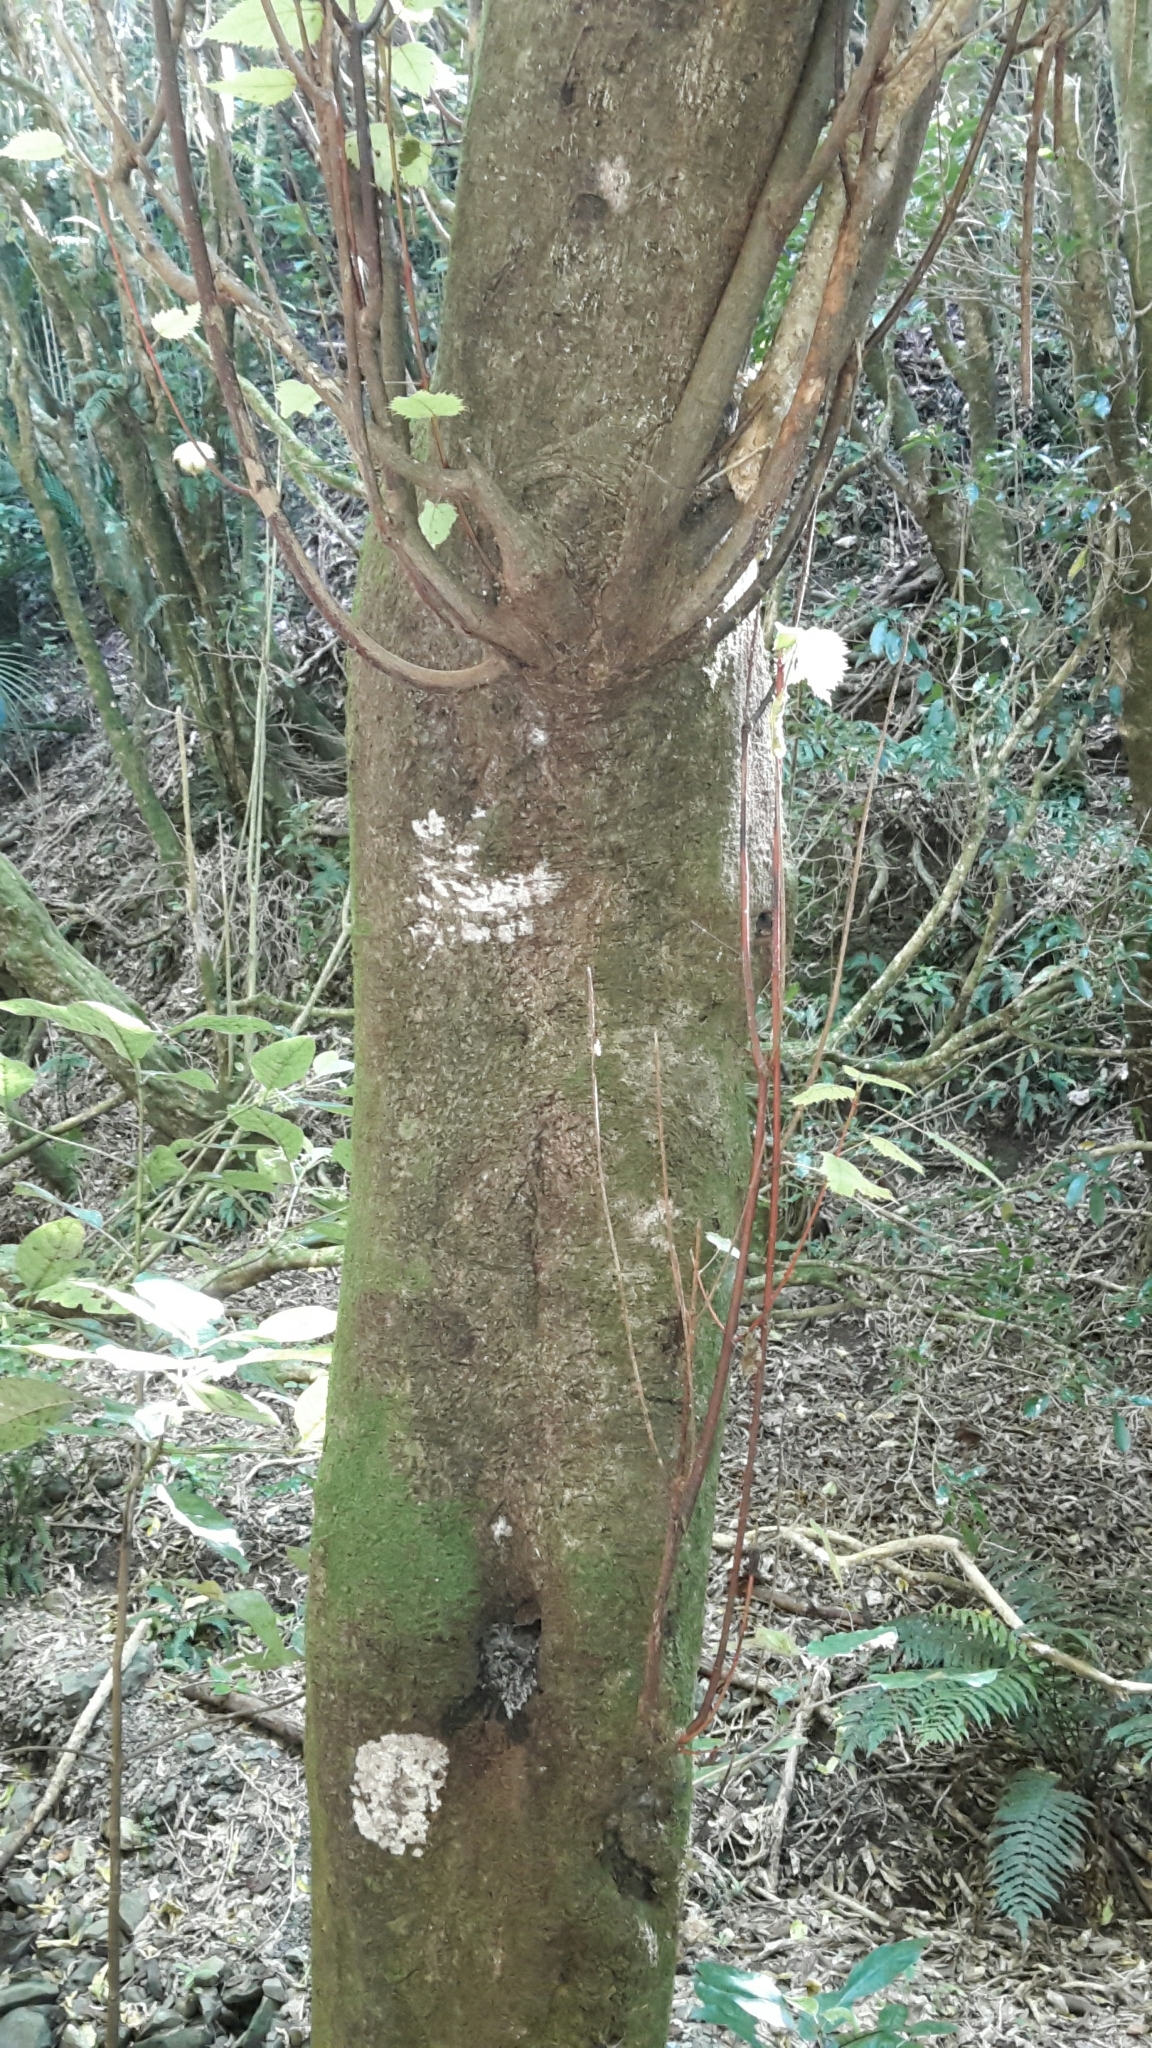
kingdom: Plantae
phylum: Tracheophyta
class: Magnoliopsida
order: Oxalidales
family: Elaeocarpaceae
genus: Aristotelia
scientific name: Aristotelia serrata
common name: New zealand wineberry
